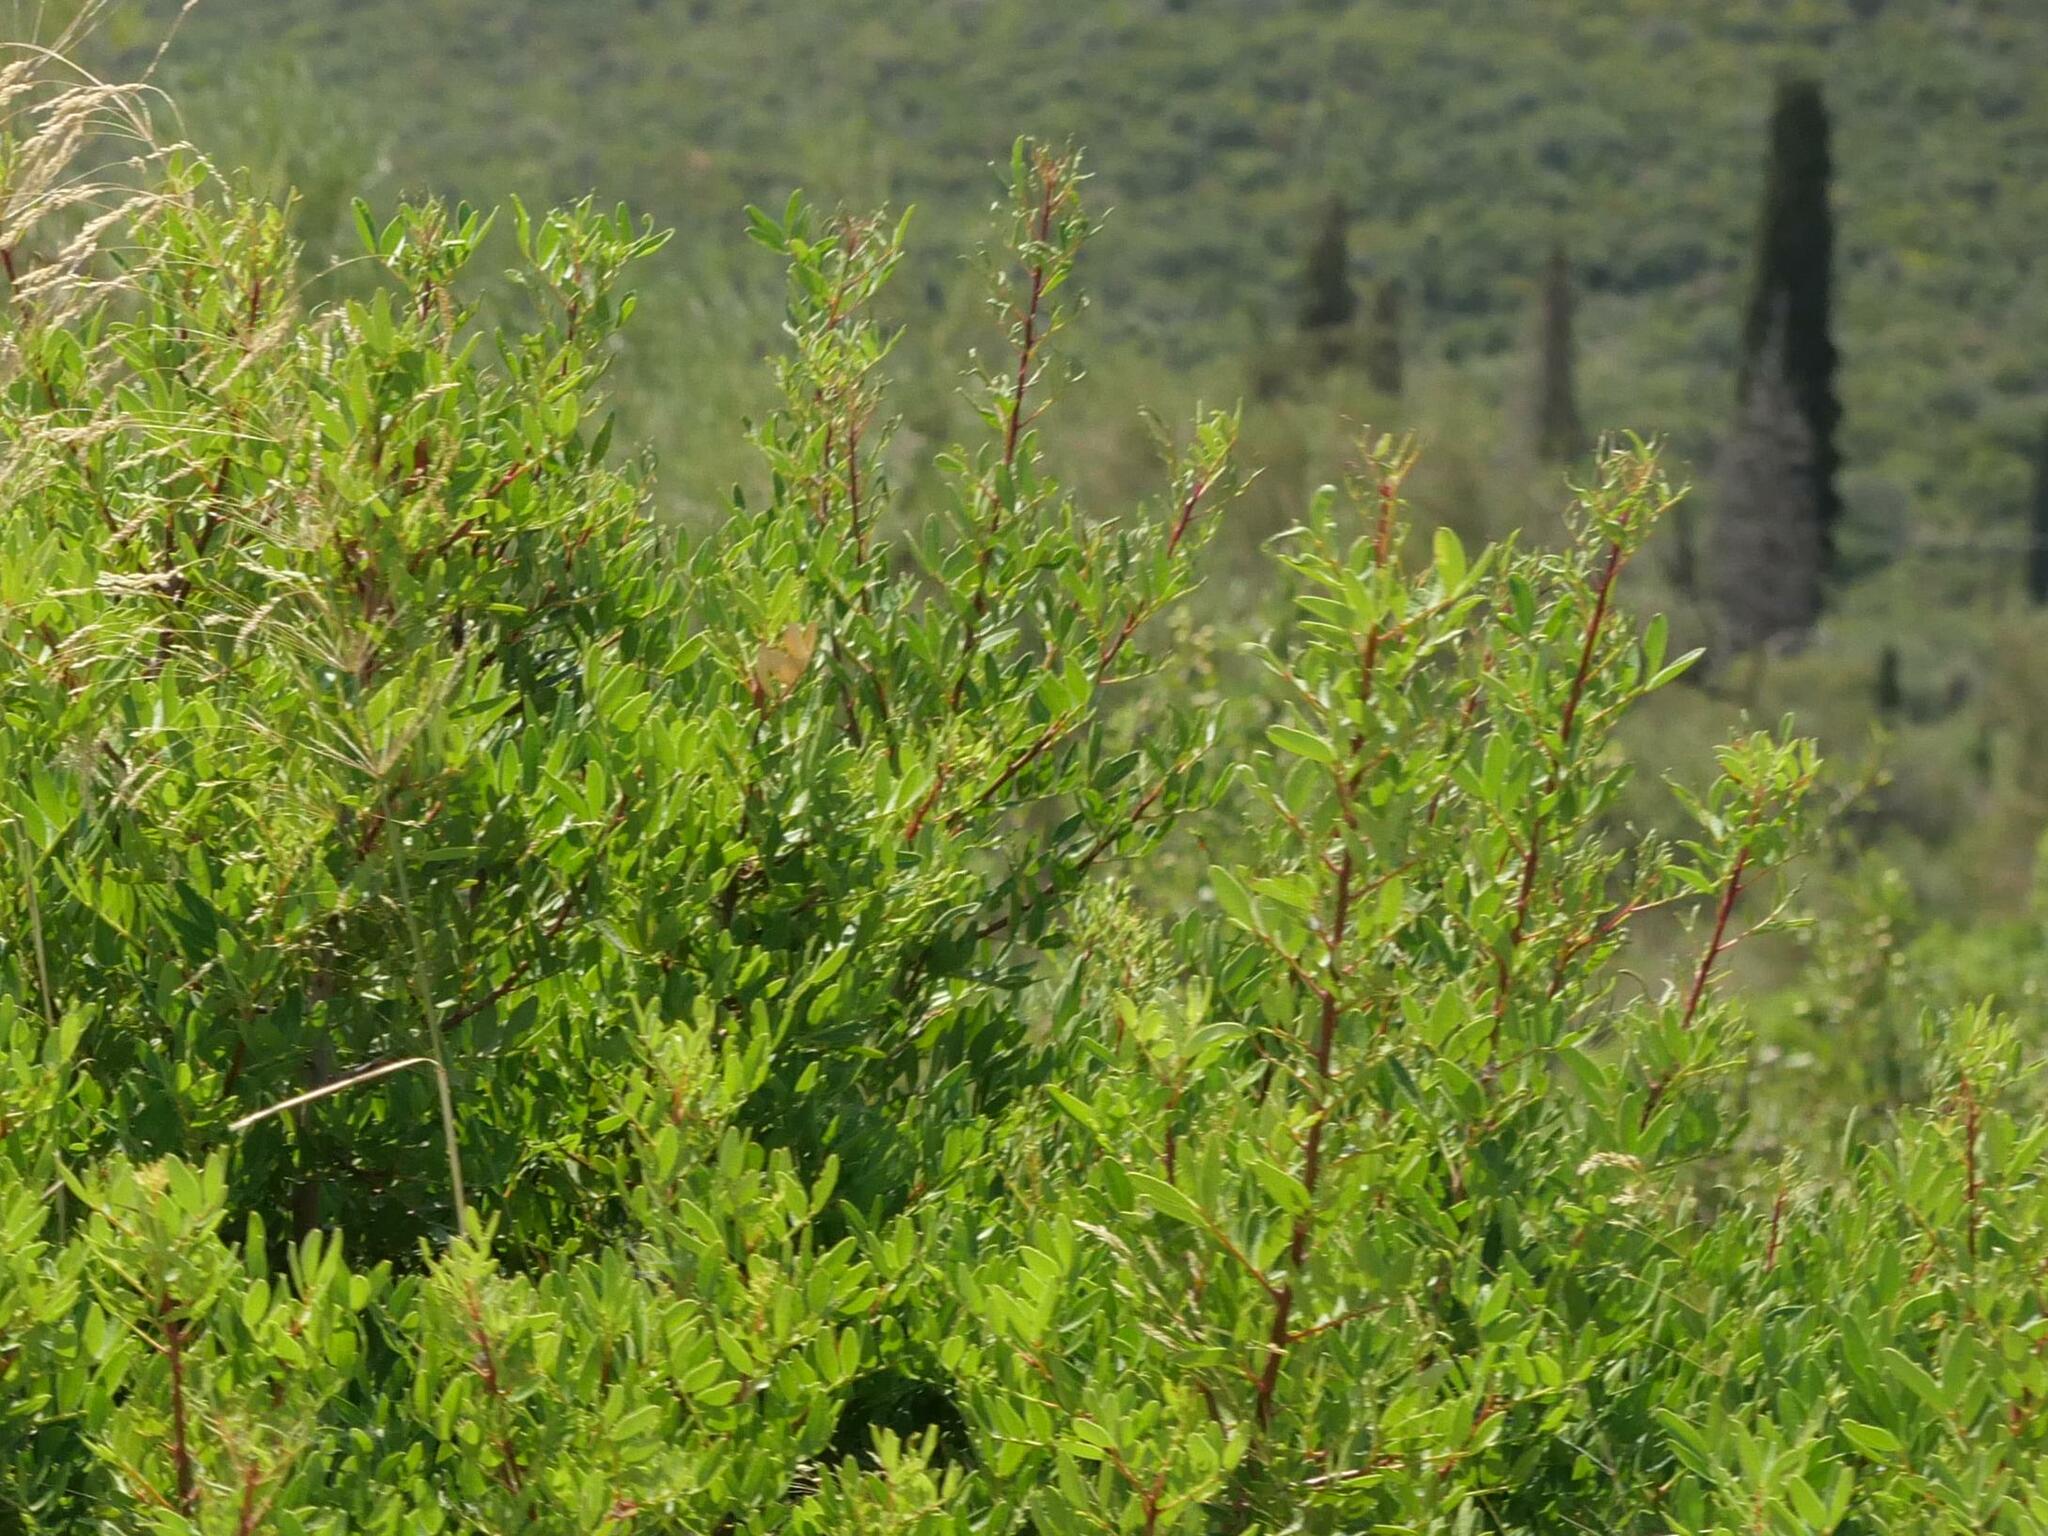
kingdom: Plantae
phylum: Tracheophyta
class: Magnoliopsida
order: Sapindales
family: Anacardiaceae
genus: Pistacia
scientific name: Pistacia lentiscus
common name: Lentisk
